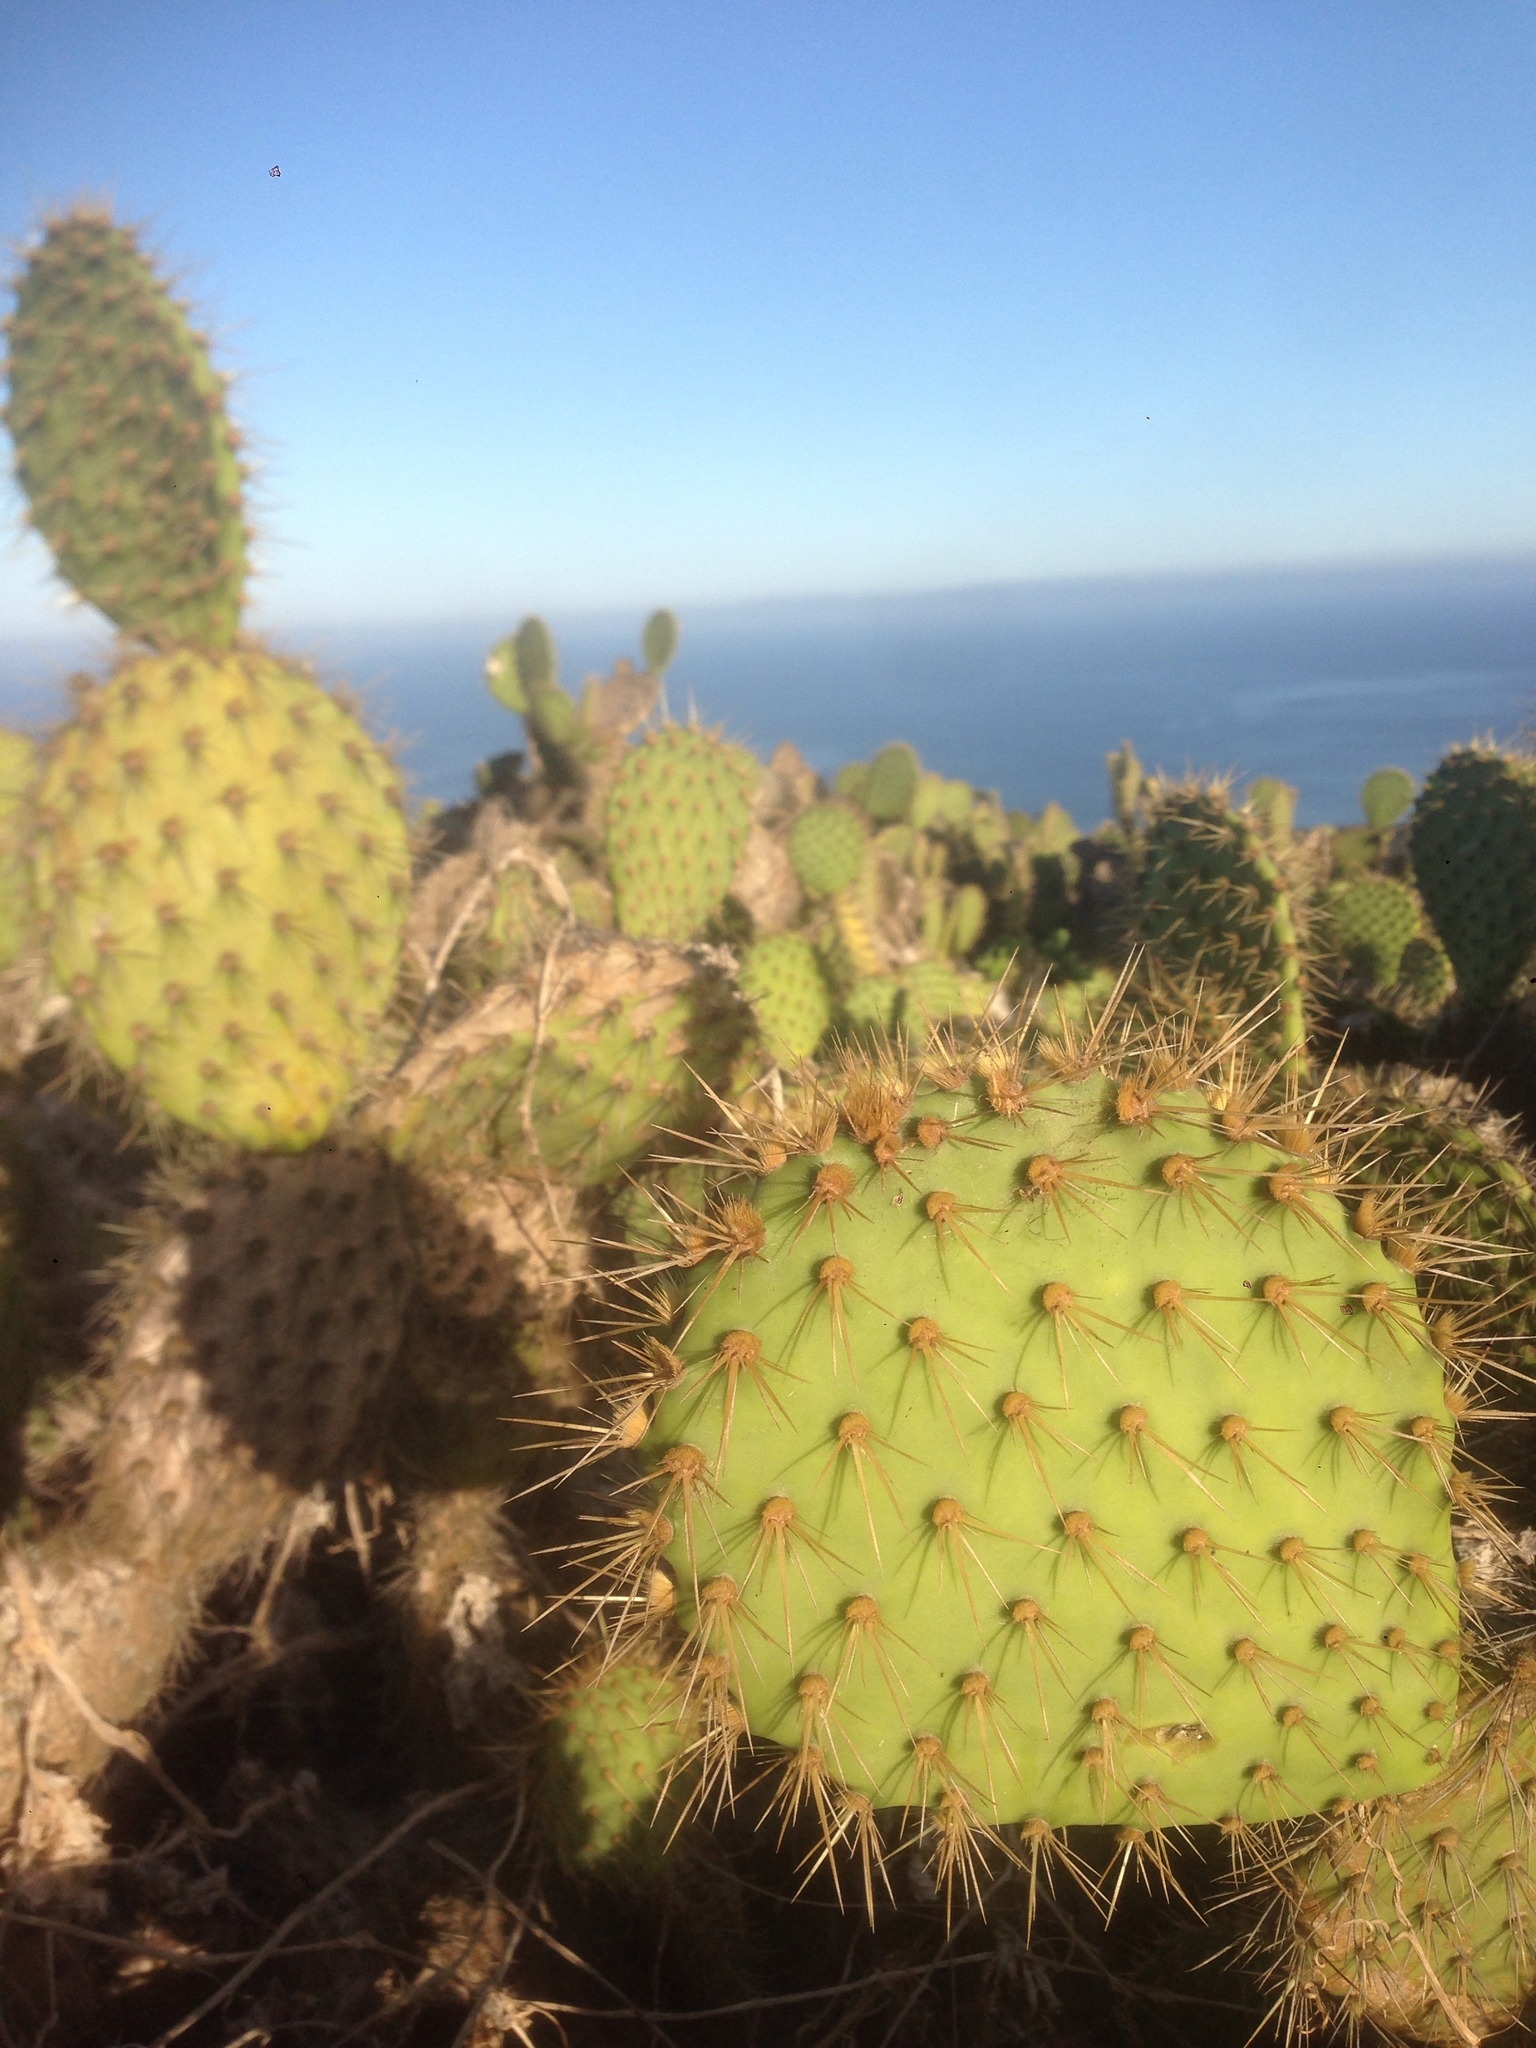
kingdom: Plantae
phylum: Tracheophyta
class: Magnoliopsida
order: Caryophyllales
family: Cactaceae
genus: Opuntia
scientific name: Opuntia oricola
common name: Chaparral prickly-pear
